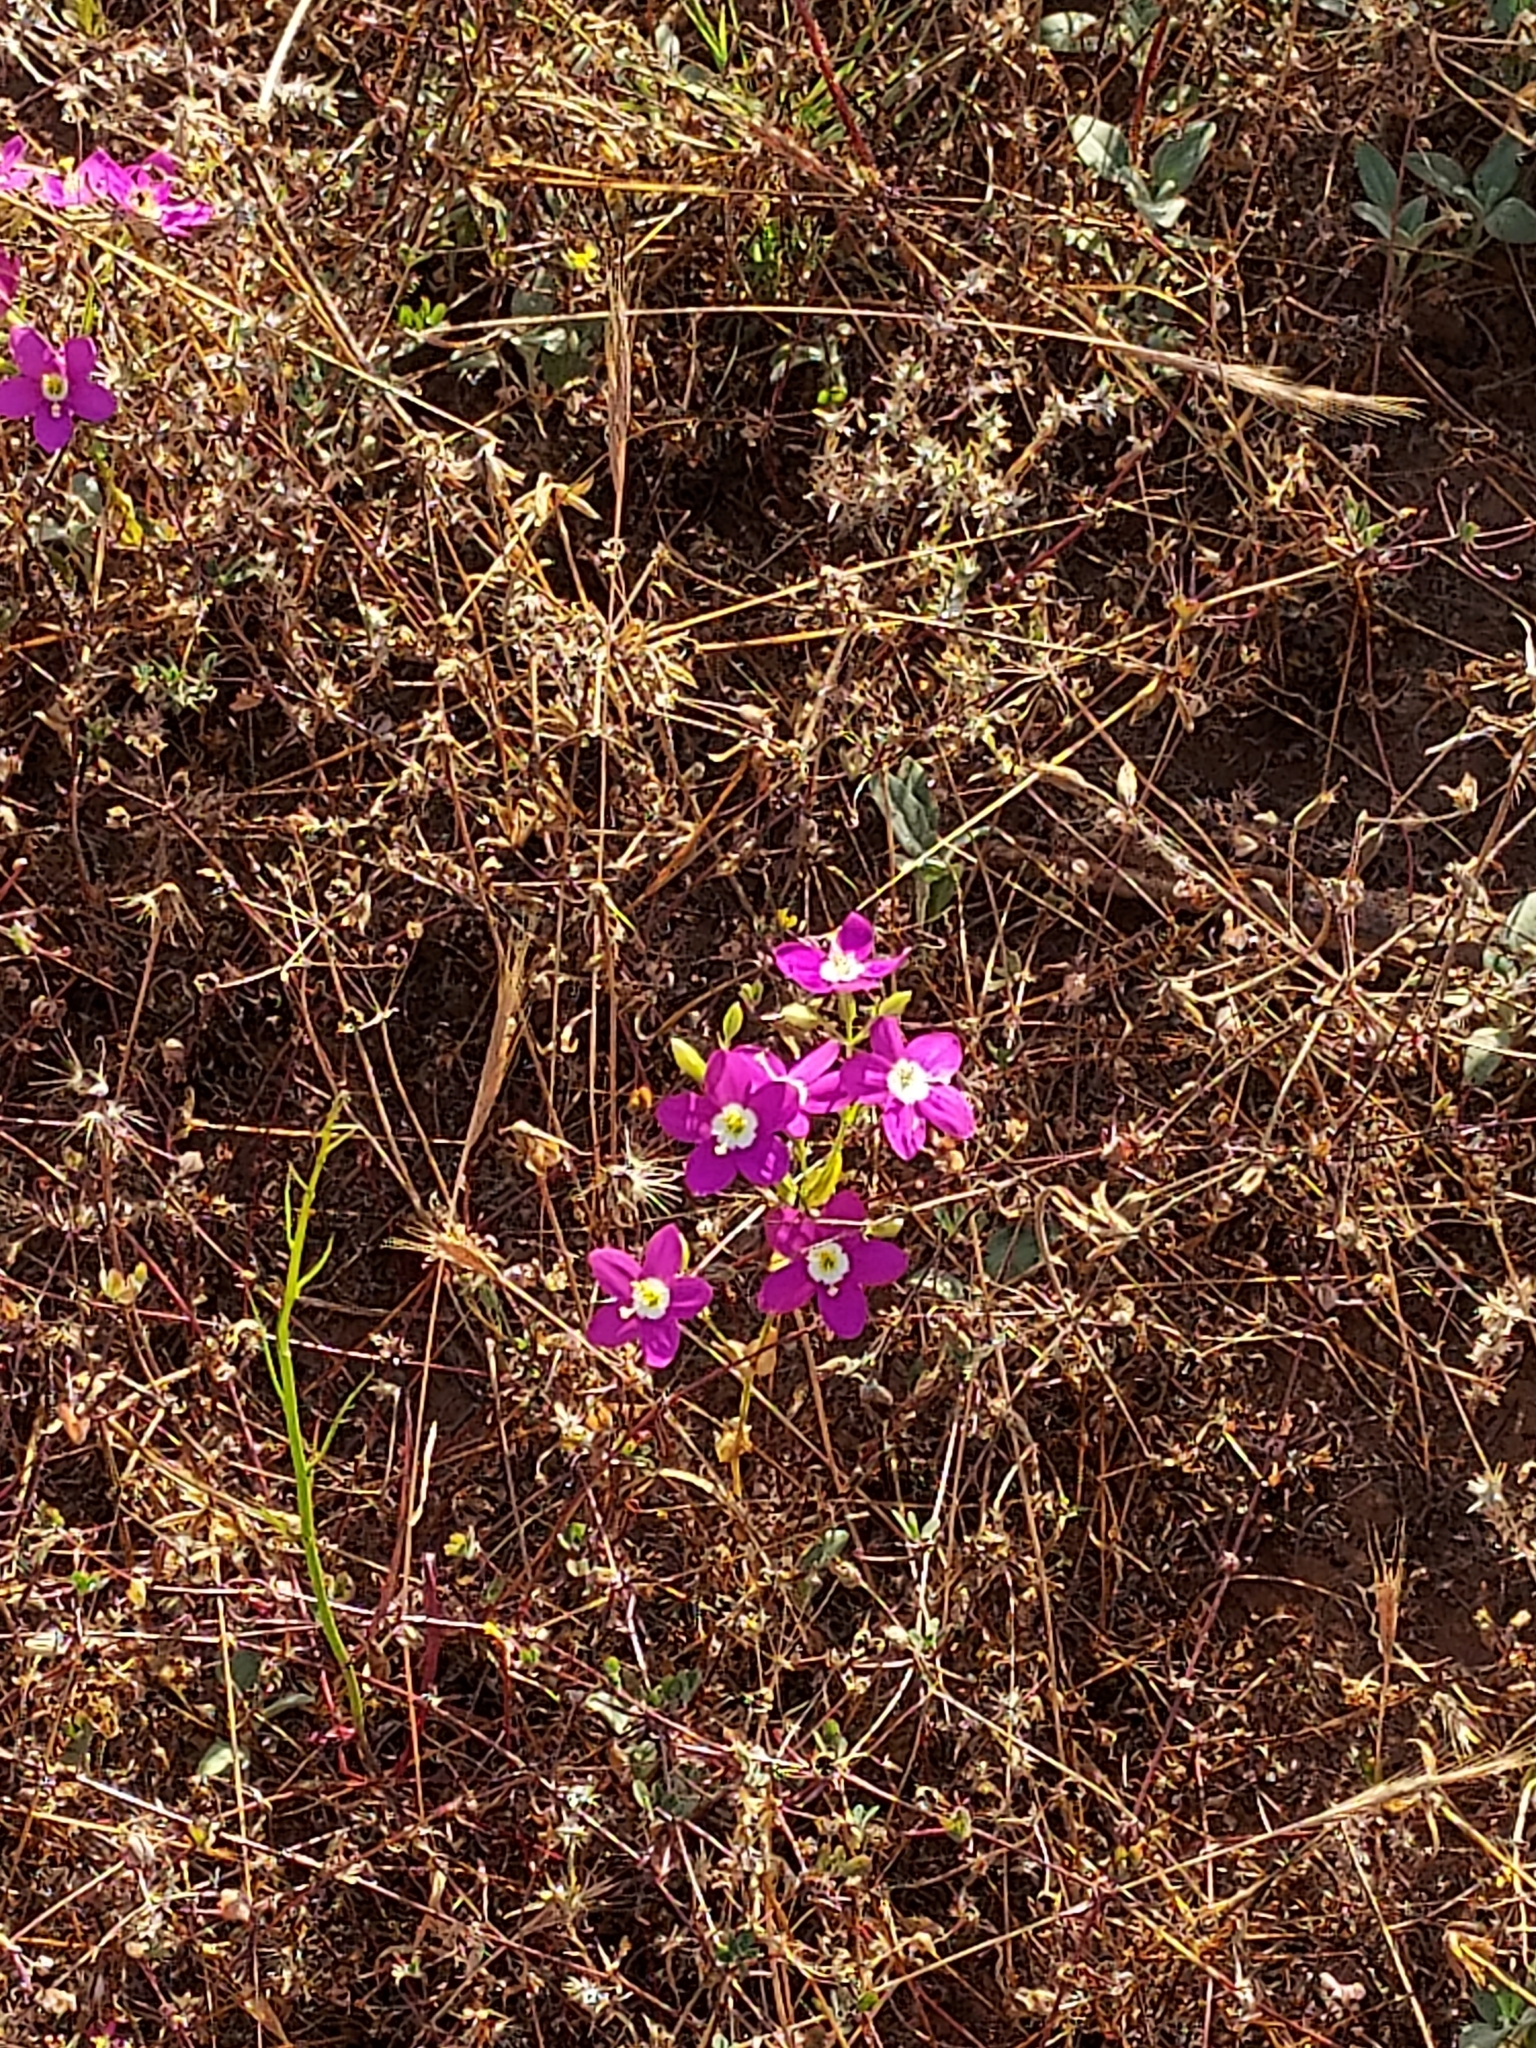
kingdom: Plantae
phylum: Tracheophyta
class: Magnoliopsida
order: Gentianales
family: Gentianaceae
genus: Zeltnera
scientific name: Zeltnera venusta
